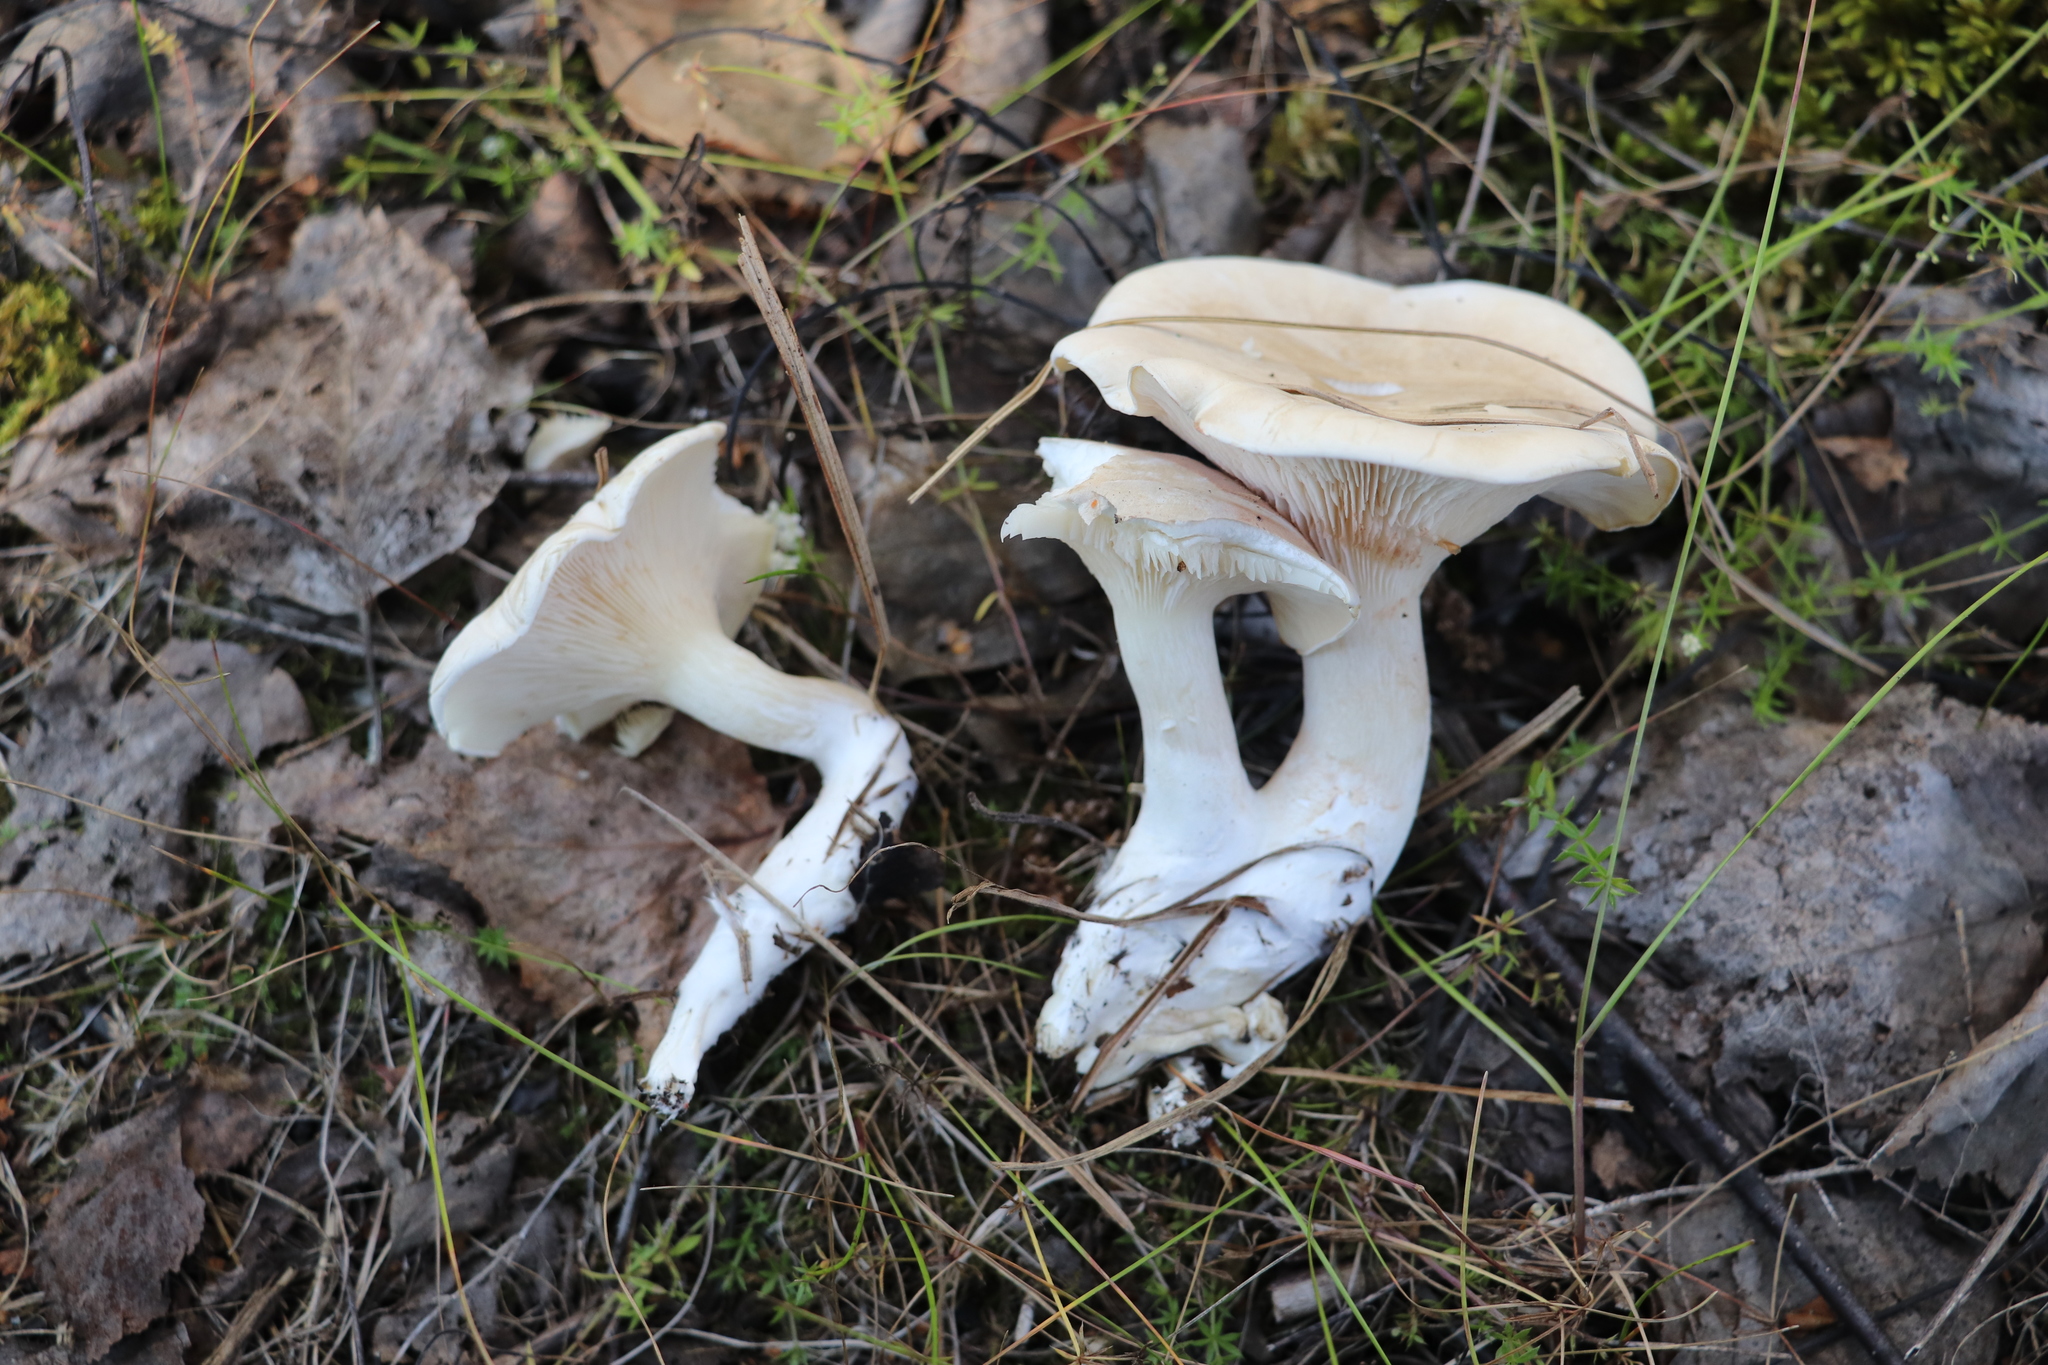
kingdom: Fungi
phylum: Basidiomycota
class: Agaricomycetes
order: Agaricales
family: Entolomataceae
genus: Clitopilus
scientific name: Clitopilus prunulus
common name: The miller
